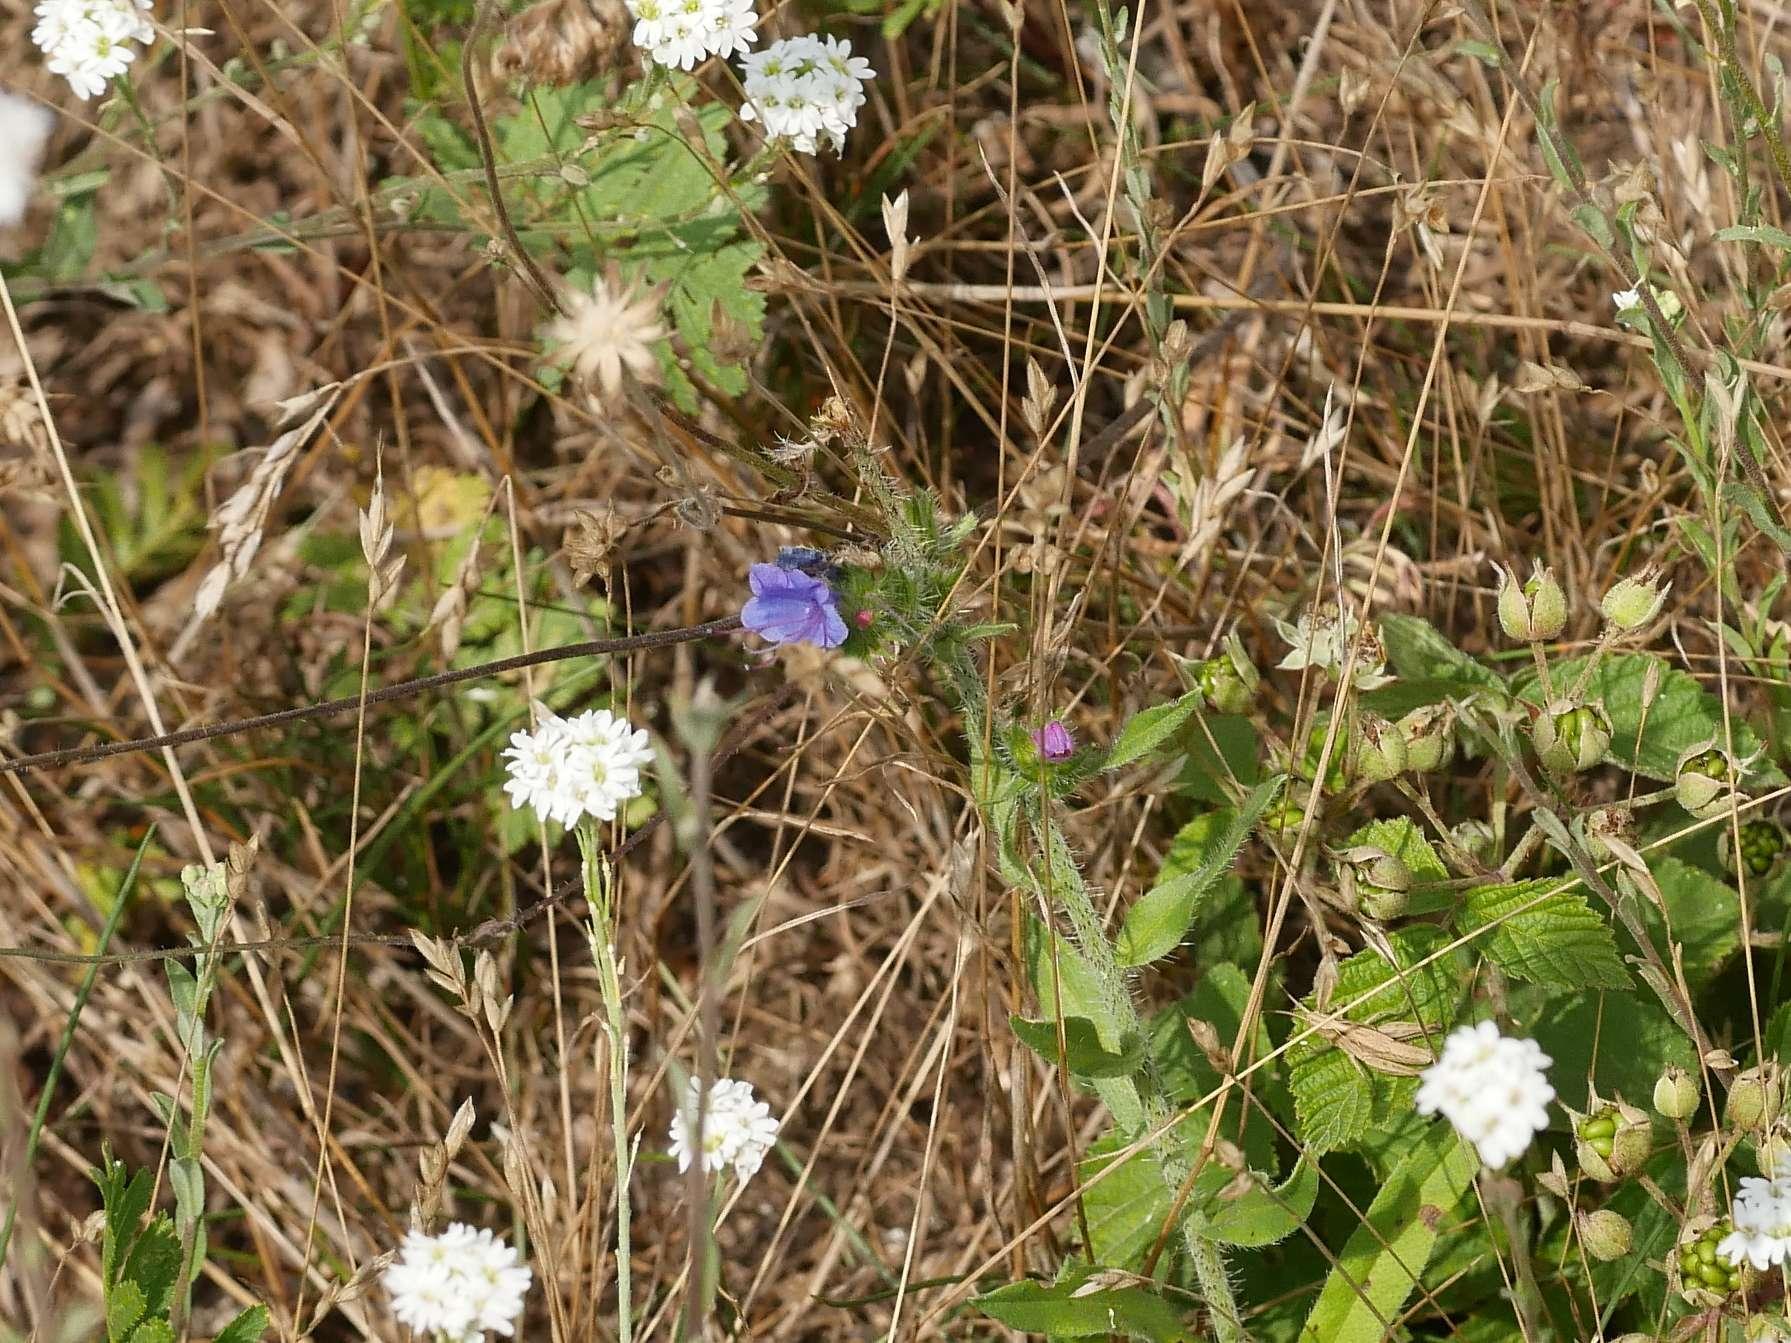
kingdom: Plantae
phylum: Tracheophyta
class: Magnoliopsida
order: Boraginales
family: Boraginaceae
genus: Echium
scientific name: Echium vulgare
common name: Common viper's bugloss
